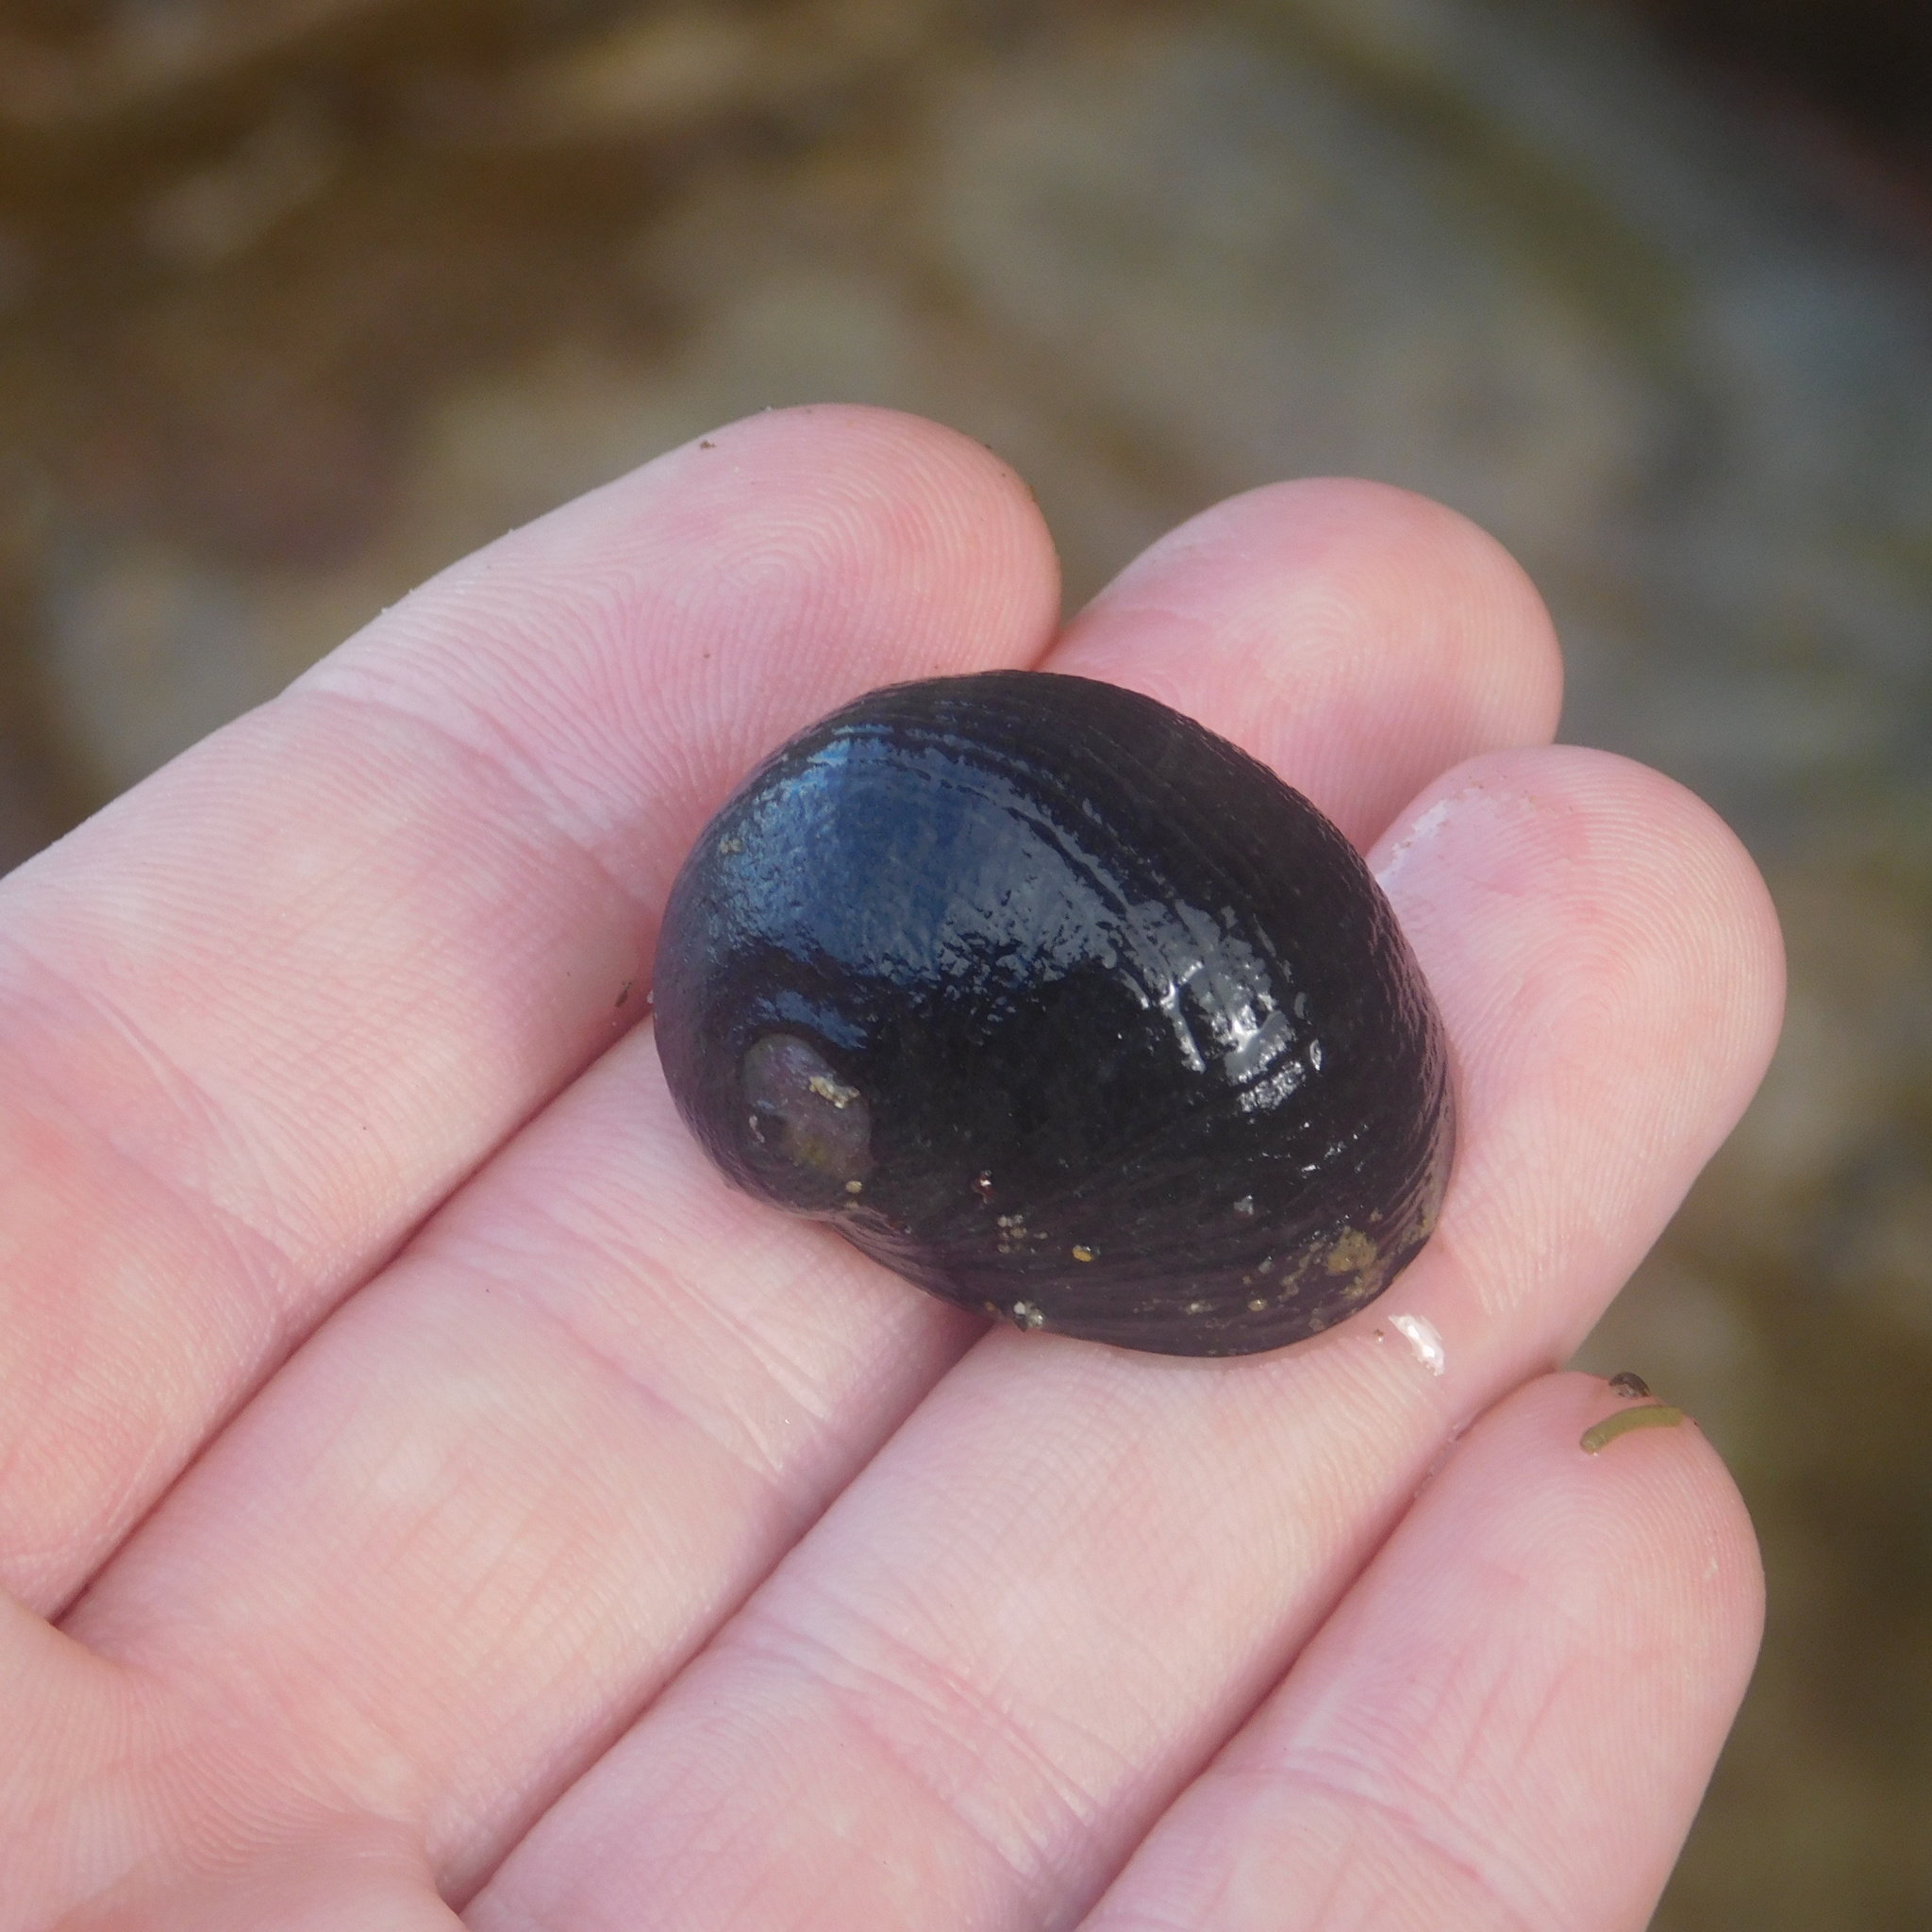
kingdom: Animalia
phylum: Mollusca
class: Gastropoda
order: Cycloneritida
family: Neritidae
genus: Nerita
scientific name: Nerita melanotragus
